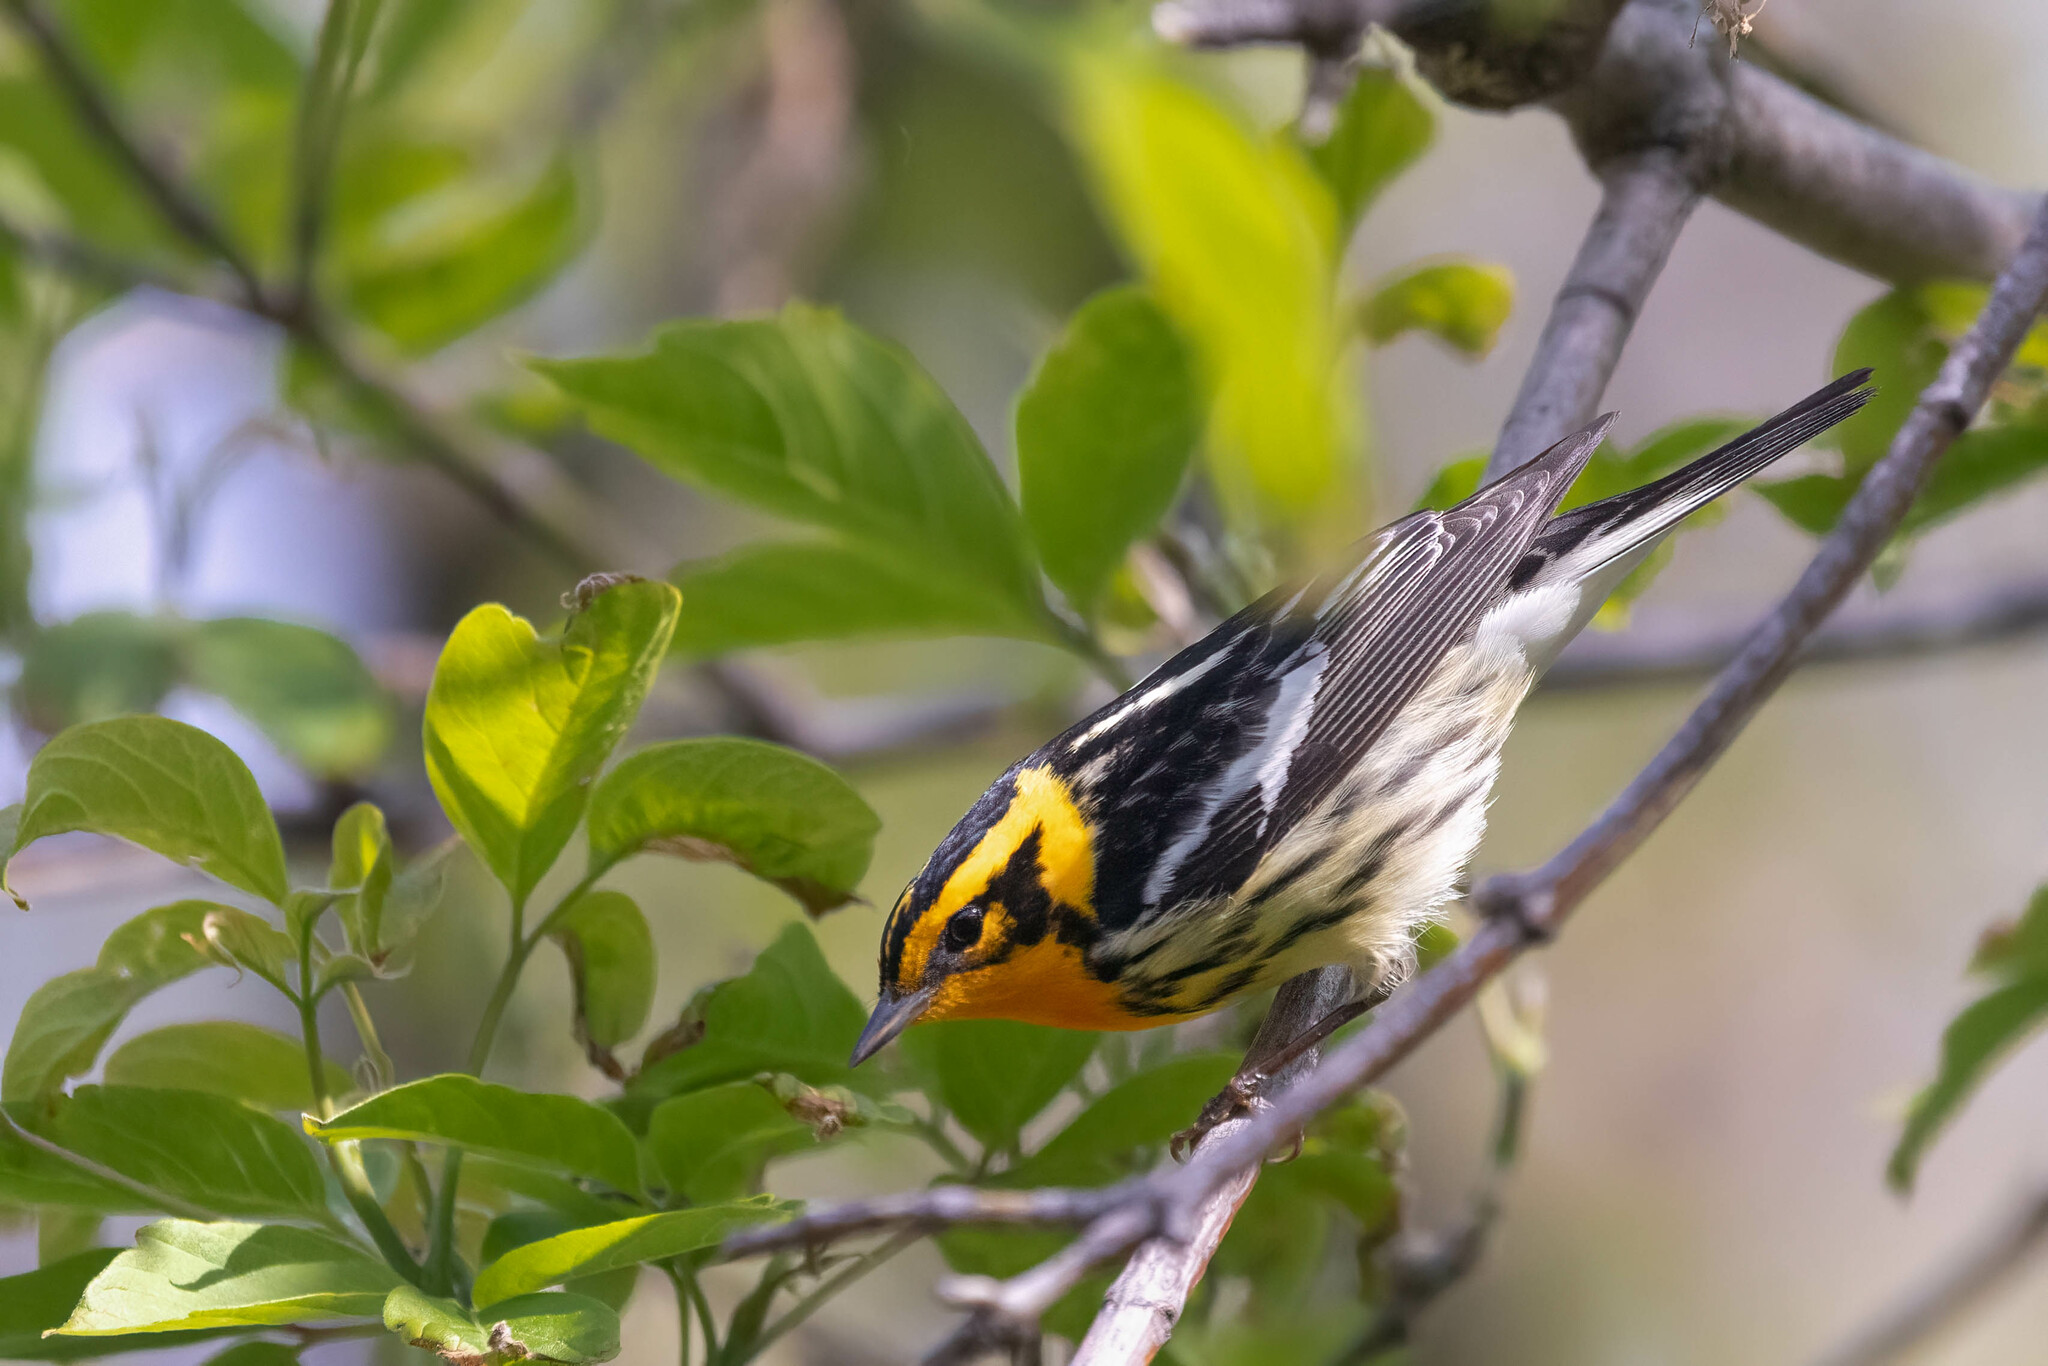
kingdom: Animalia
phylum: Chordata
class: Aves
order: Passeriformes
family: Parulidae
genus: Setophaga
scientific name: Setophaga fusca
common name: Blackburnian warbler
